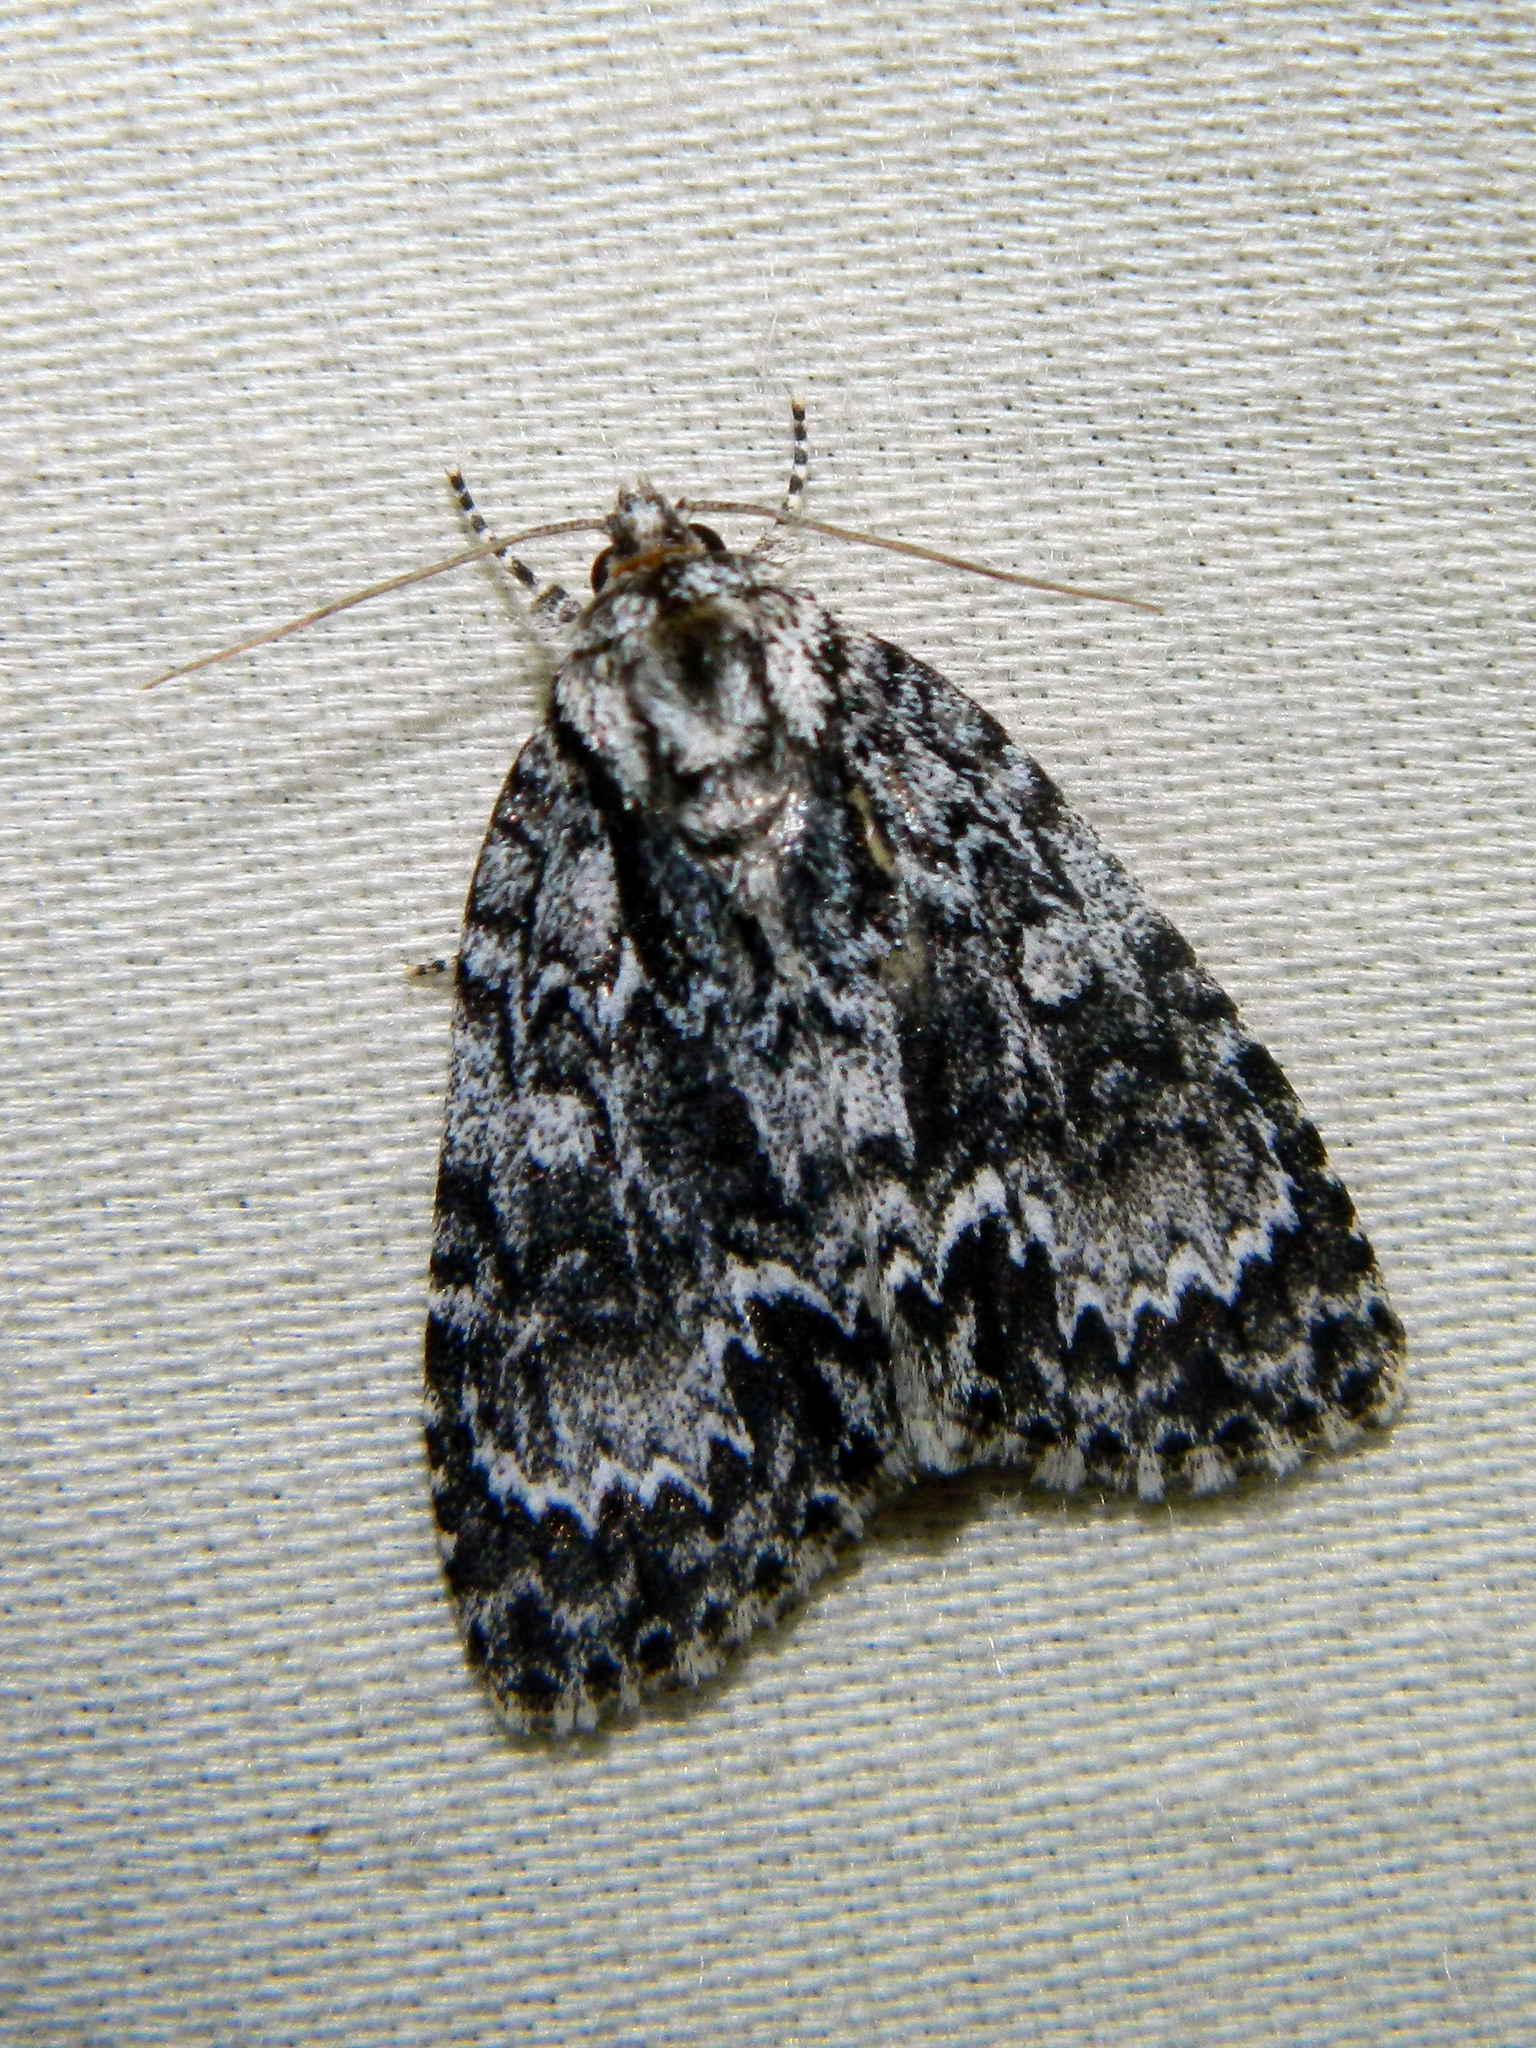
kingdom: Animalia
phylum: Arthropoda
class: Insecta
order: Lepidoptera
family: Noctuidae
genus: Acronicta
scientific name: Acronicta fragilis
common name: Fragile dagger
